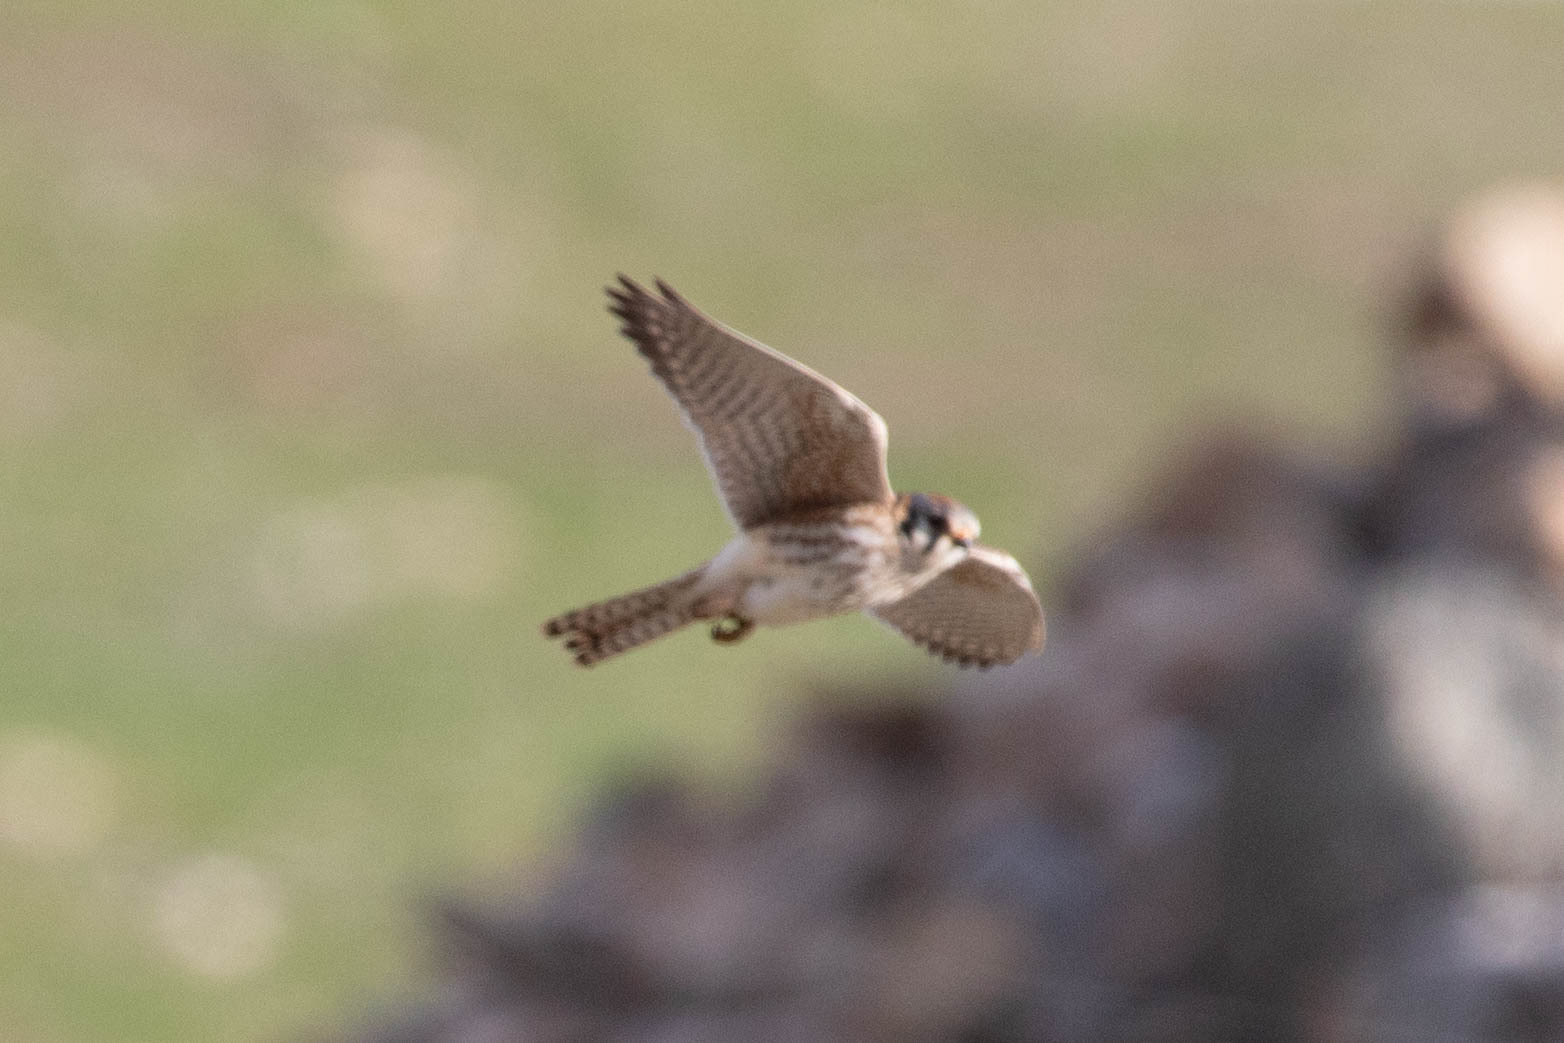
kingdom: Animalia
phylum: Chordata
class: Aves
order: Falconiformes
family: Falconidae
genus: Falco
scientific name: Falco sparverius
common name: American kestrel
